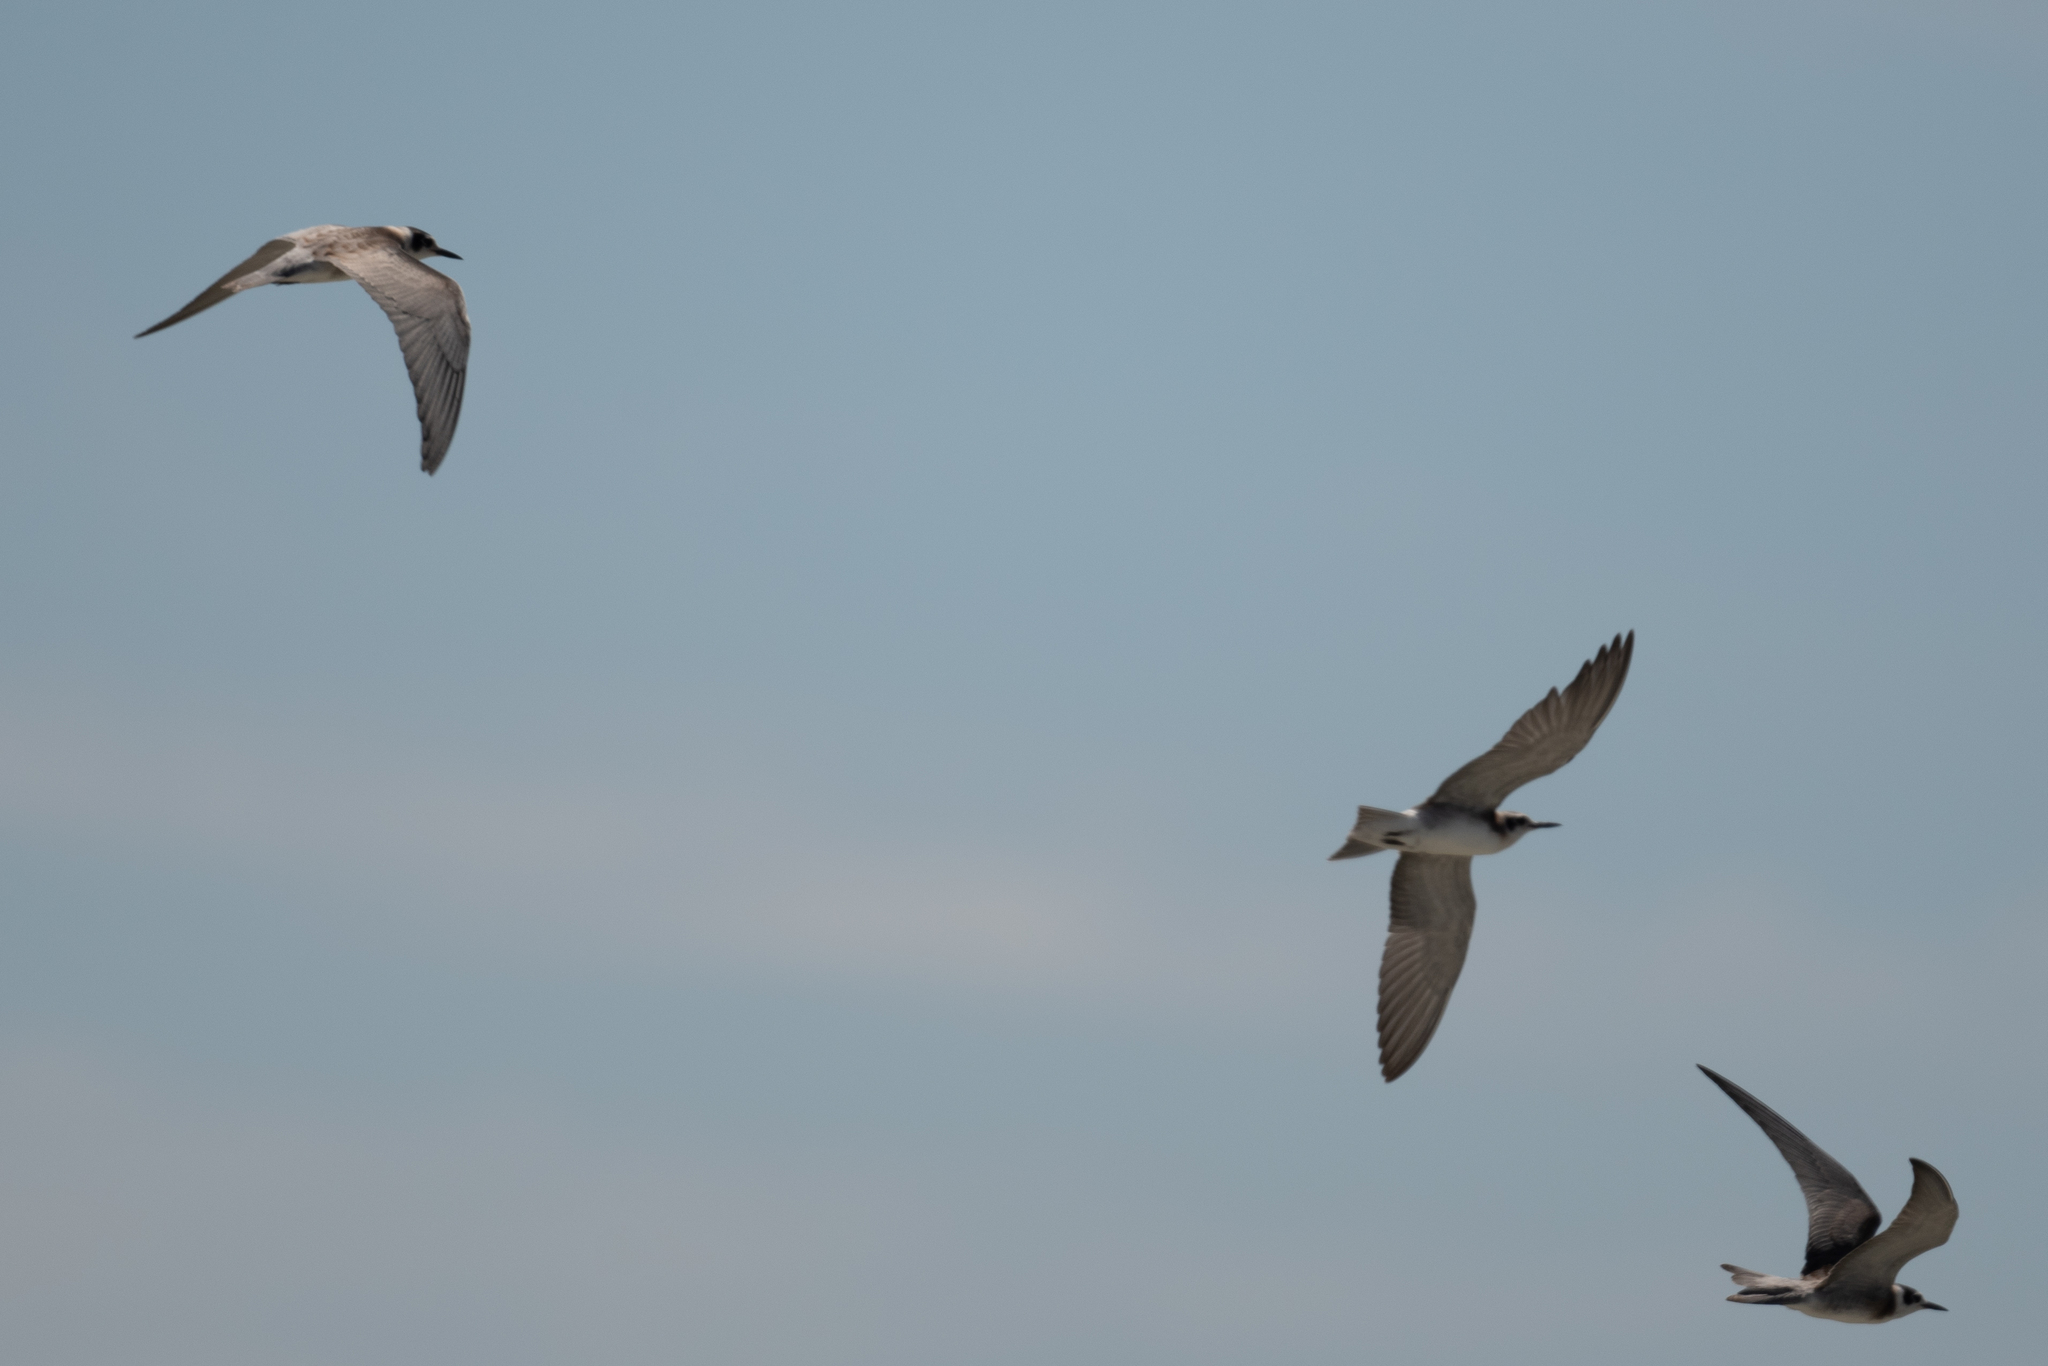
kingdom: Animalia
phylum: Chordata
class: Aves
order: Charadriiformes
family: Laridae
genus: Chlidonias
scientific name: Chlidonias niger
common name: Black tern
